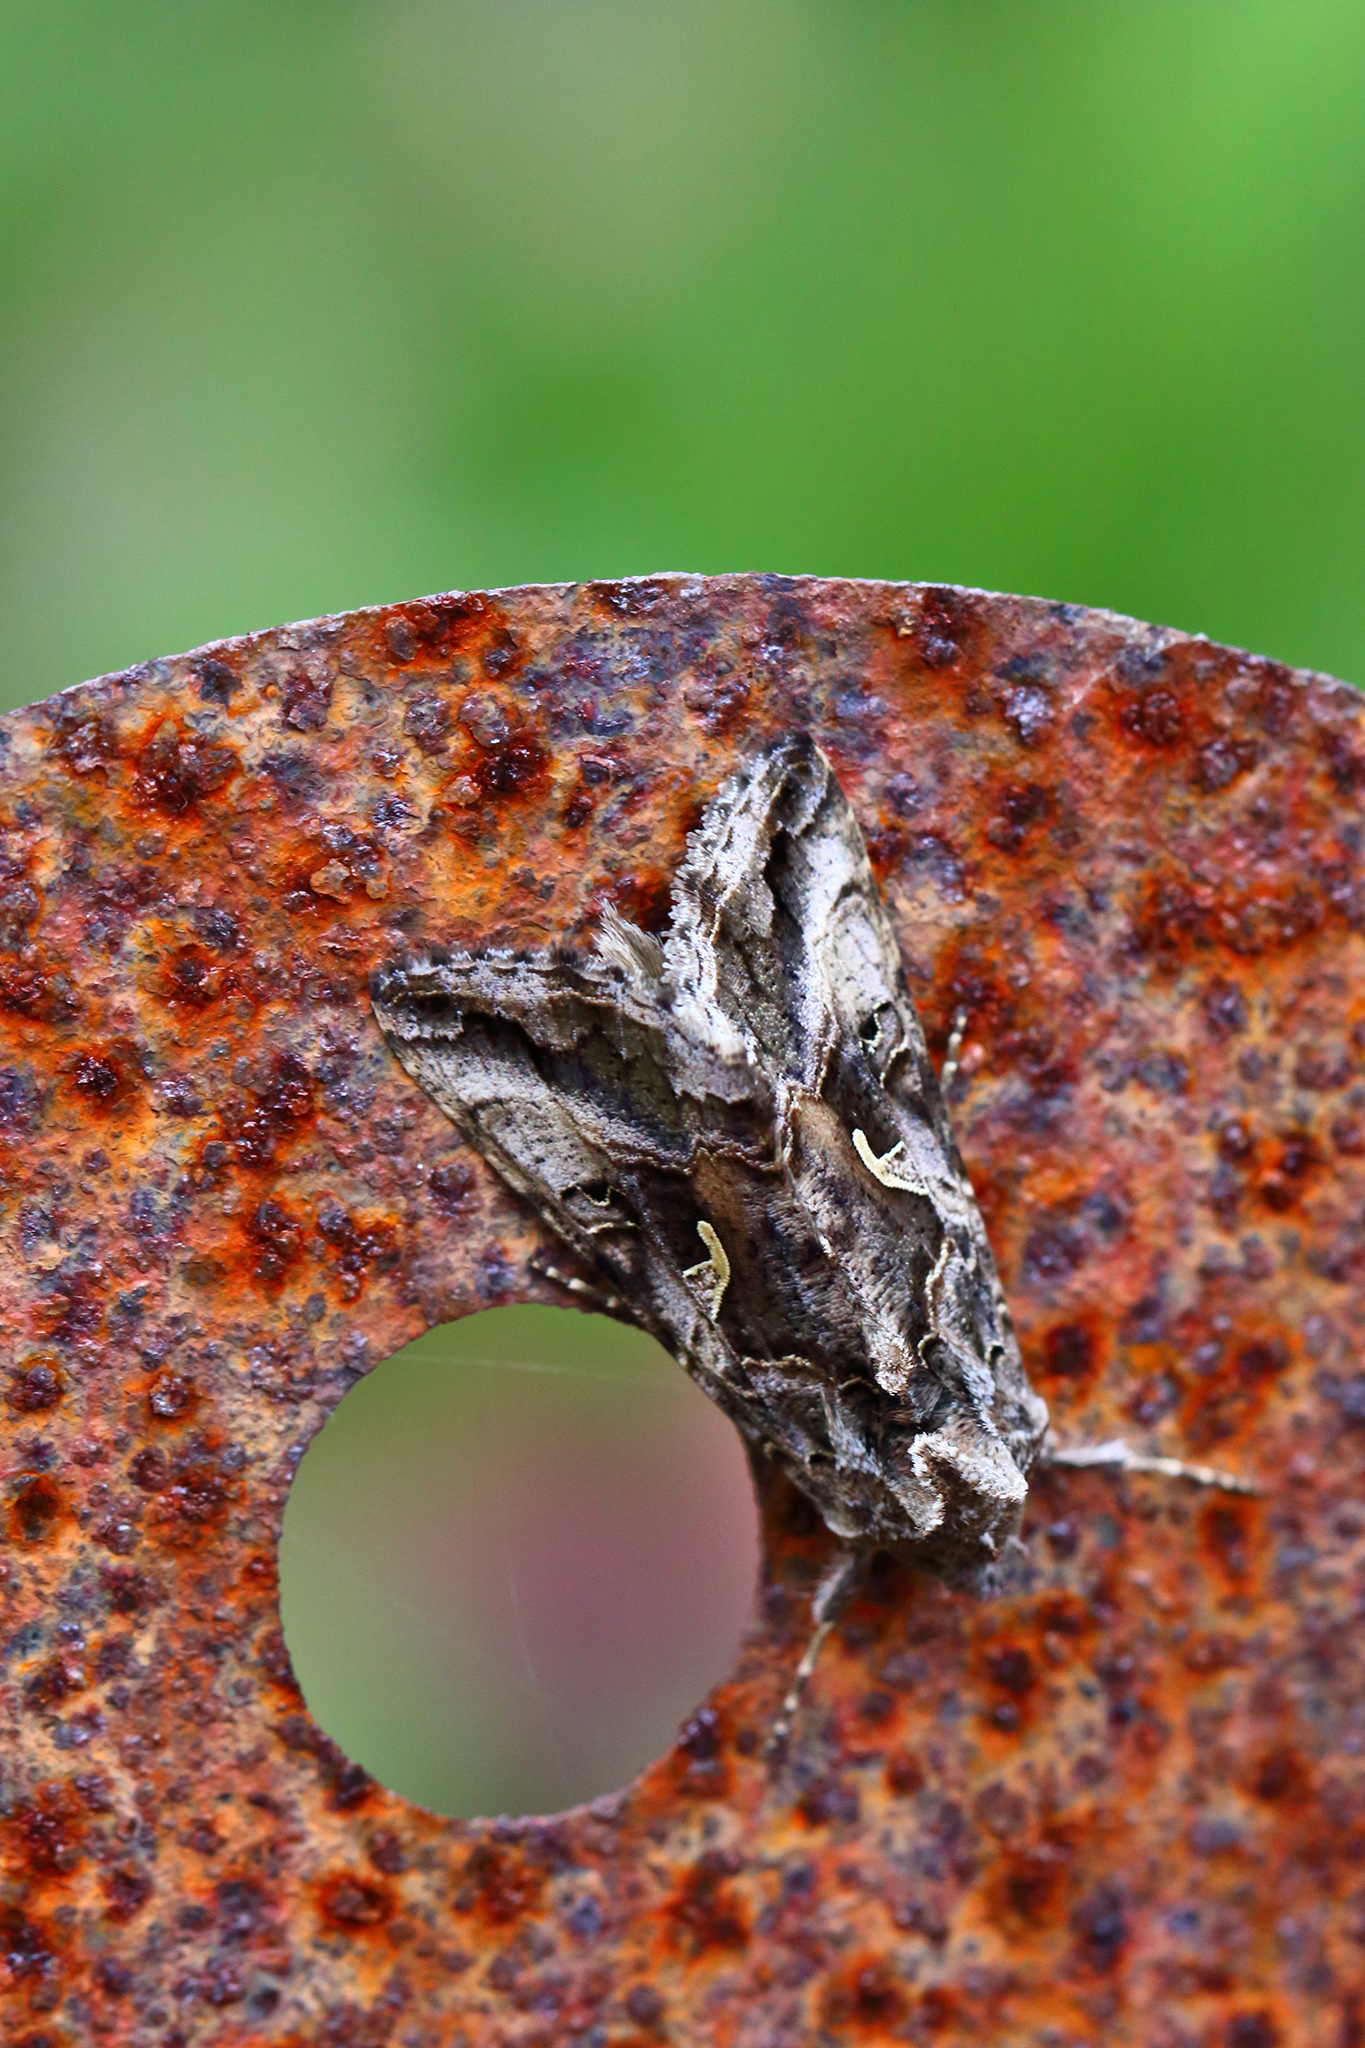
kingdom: Animalia
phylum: Arthropoda
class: Insecta
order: Lepidoptera
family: Noctuidae
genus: Autographa
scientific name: Autographa gamma
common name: Silver y
